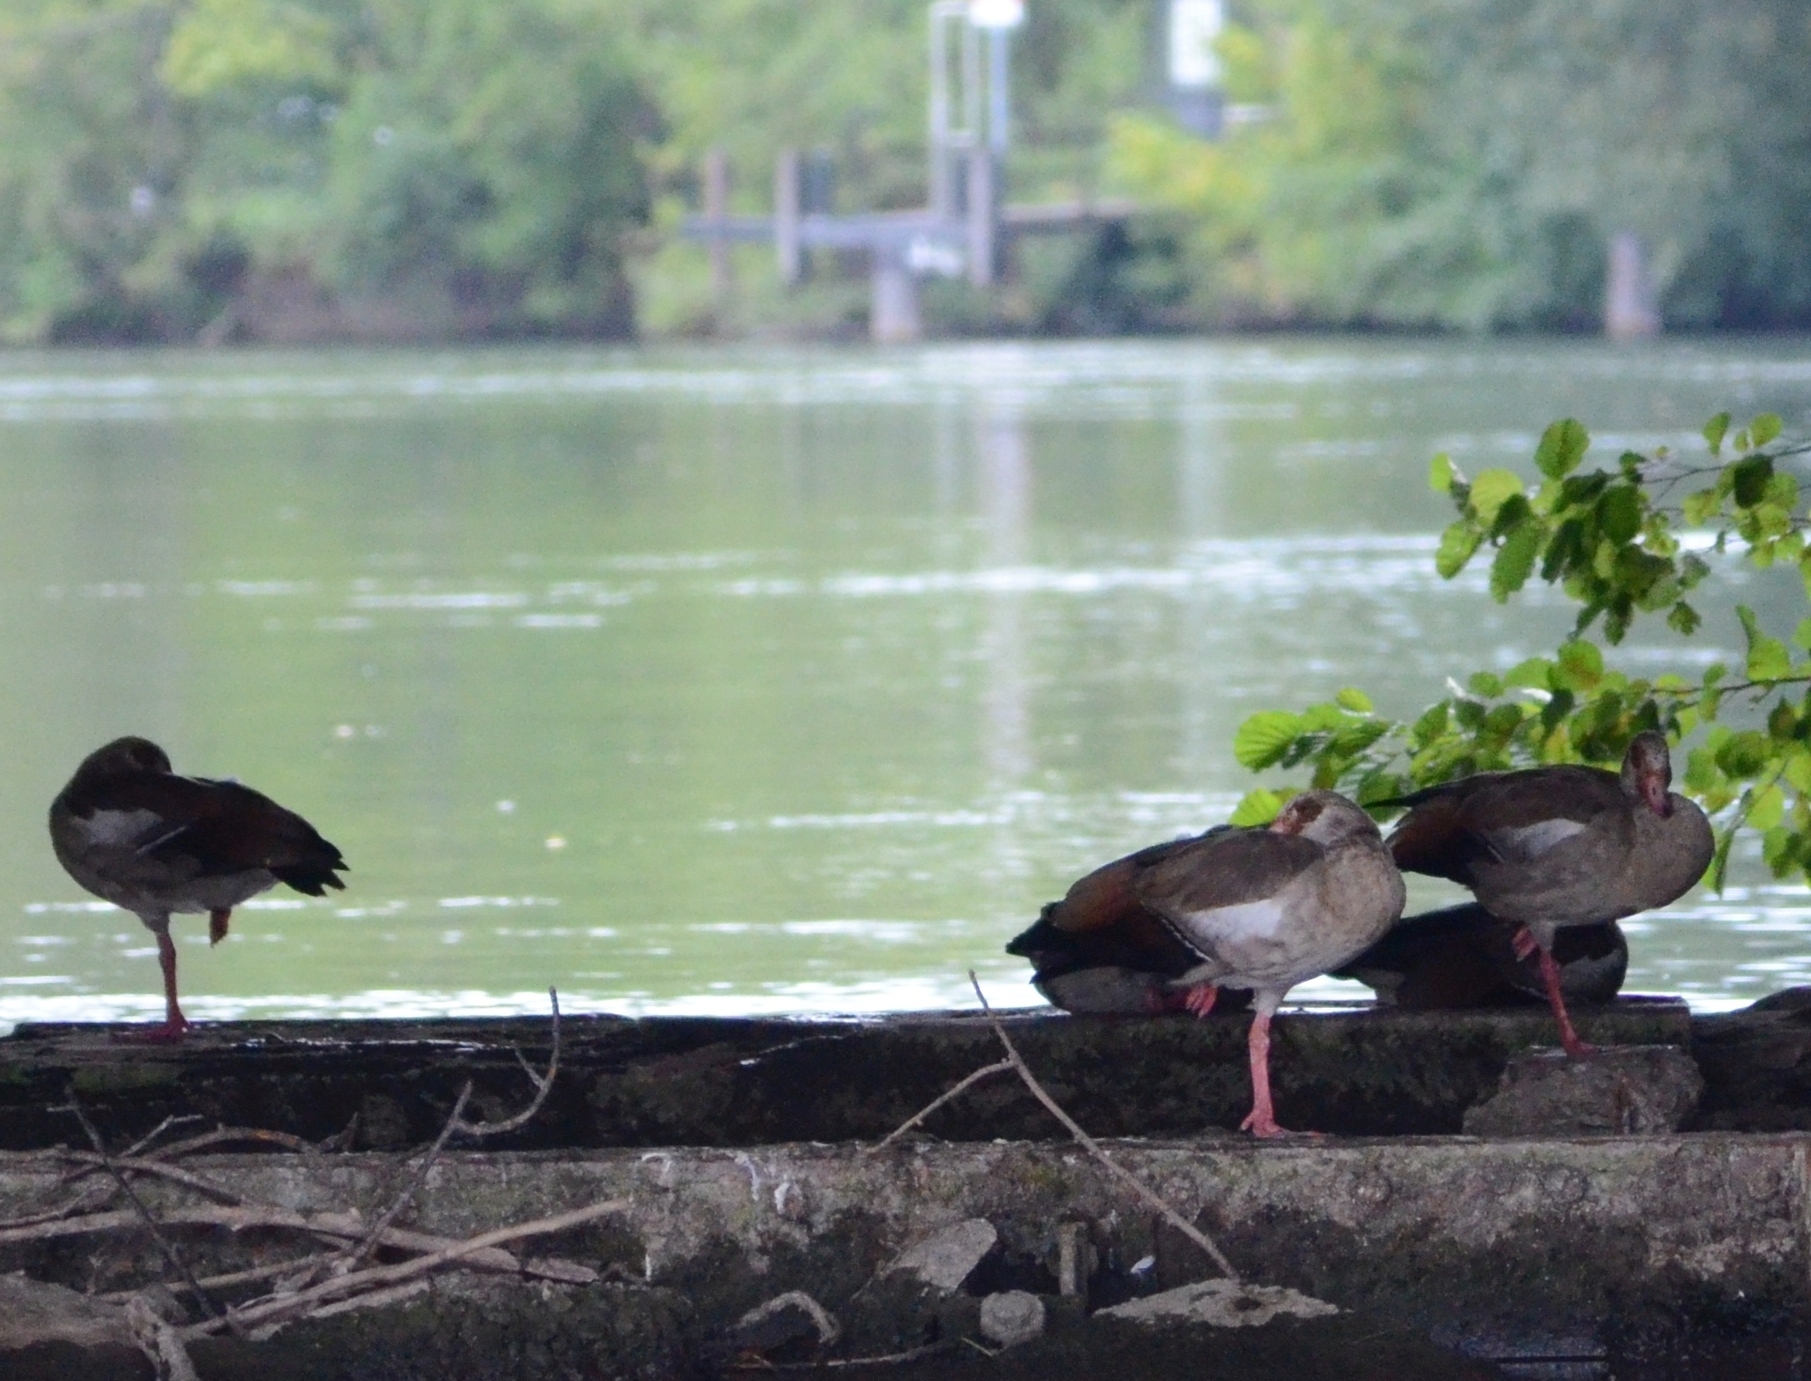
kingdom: Animalia
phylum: Chordata
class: Aves
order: Anseriformes
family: Anatidae
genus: Alopochen
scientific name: Alopochen aegyptiaca
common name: Egyptian goose
